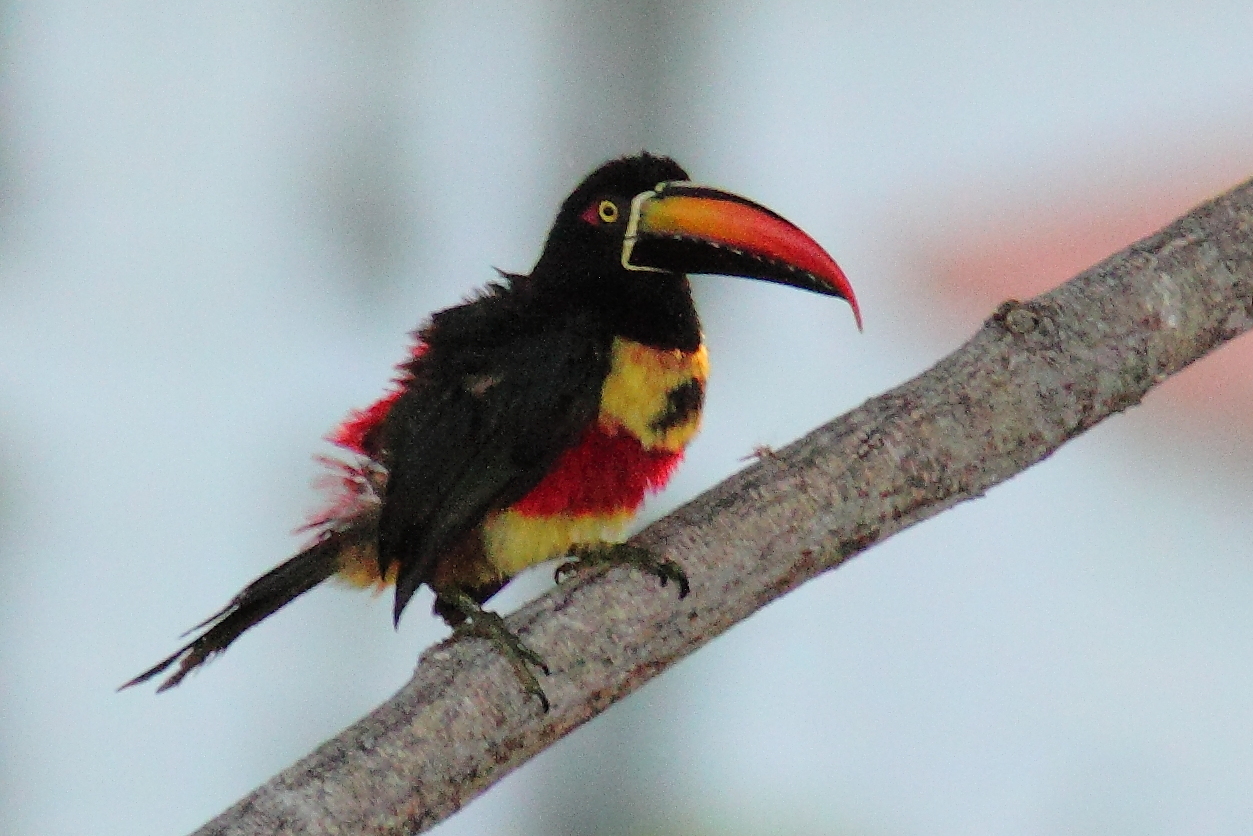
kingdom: Animalia
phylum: Chordata
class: Aves
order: Piciformes
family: Ramphastidae
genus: Pteroglossus
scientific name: Pteroglossus frantzii
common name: Fiery-billed aracari
